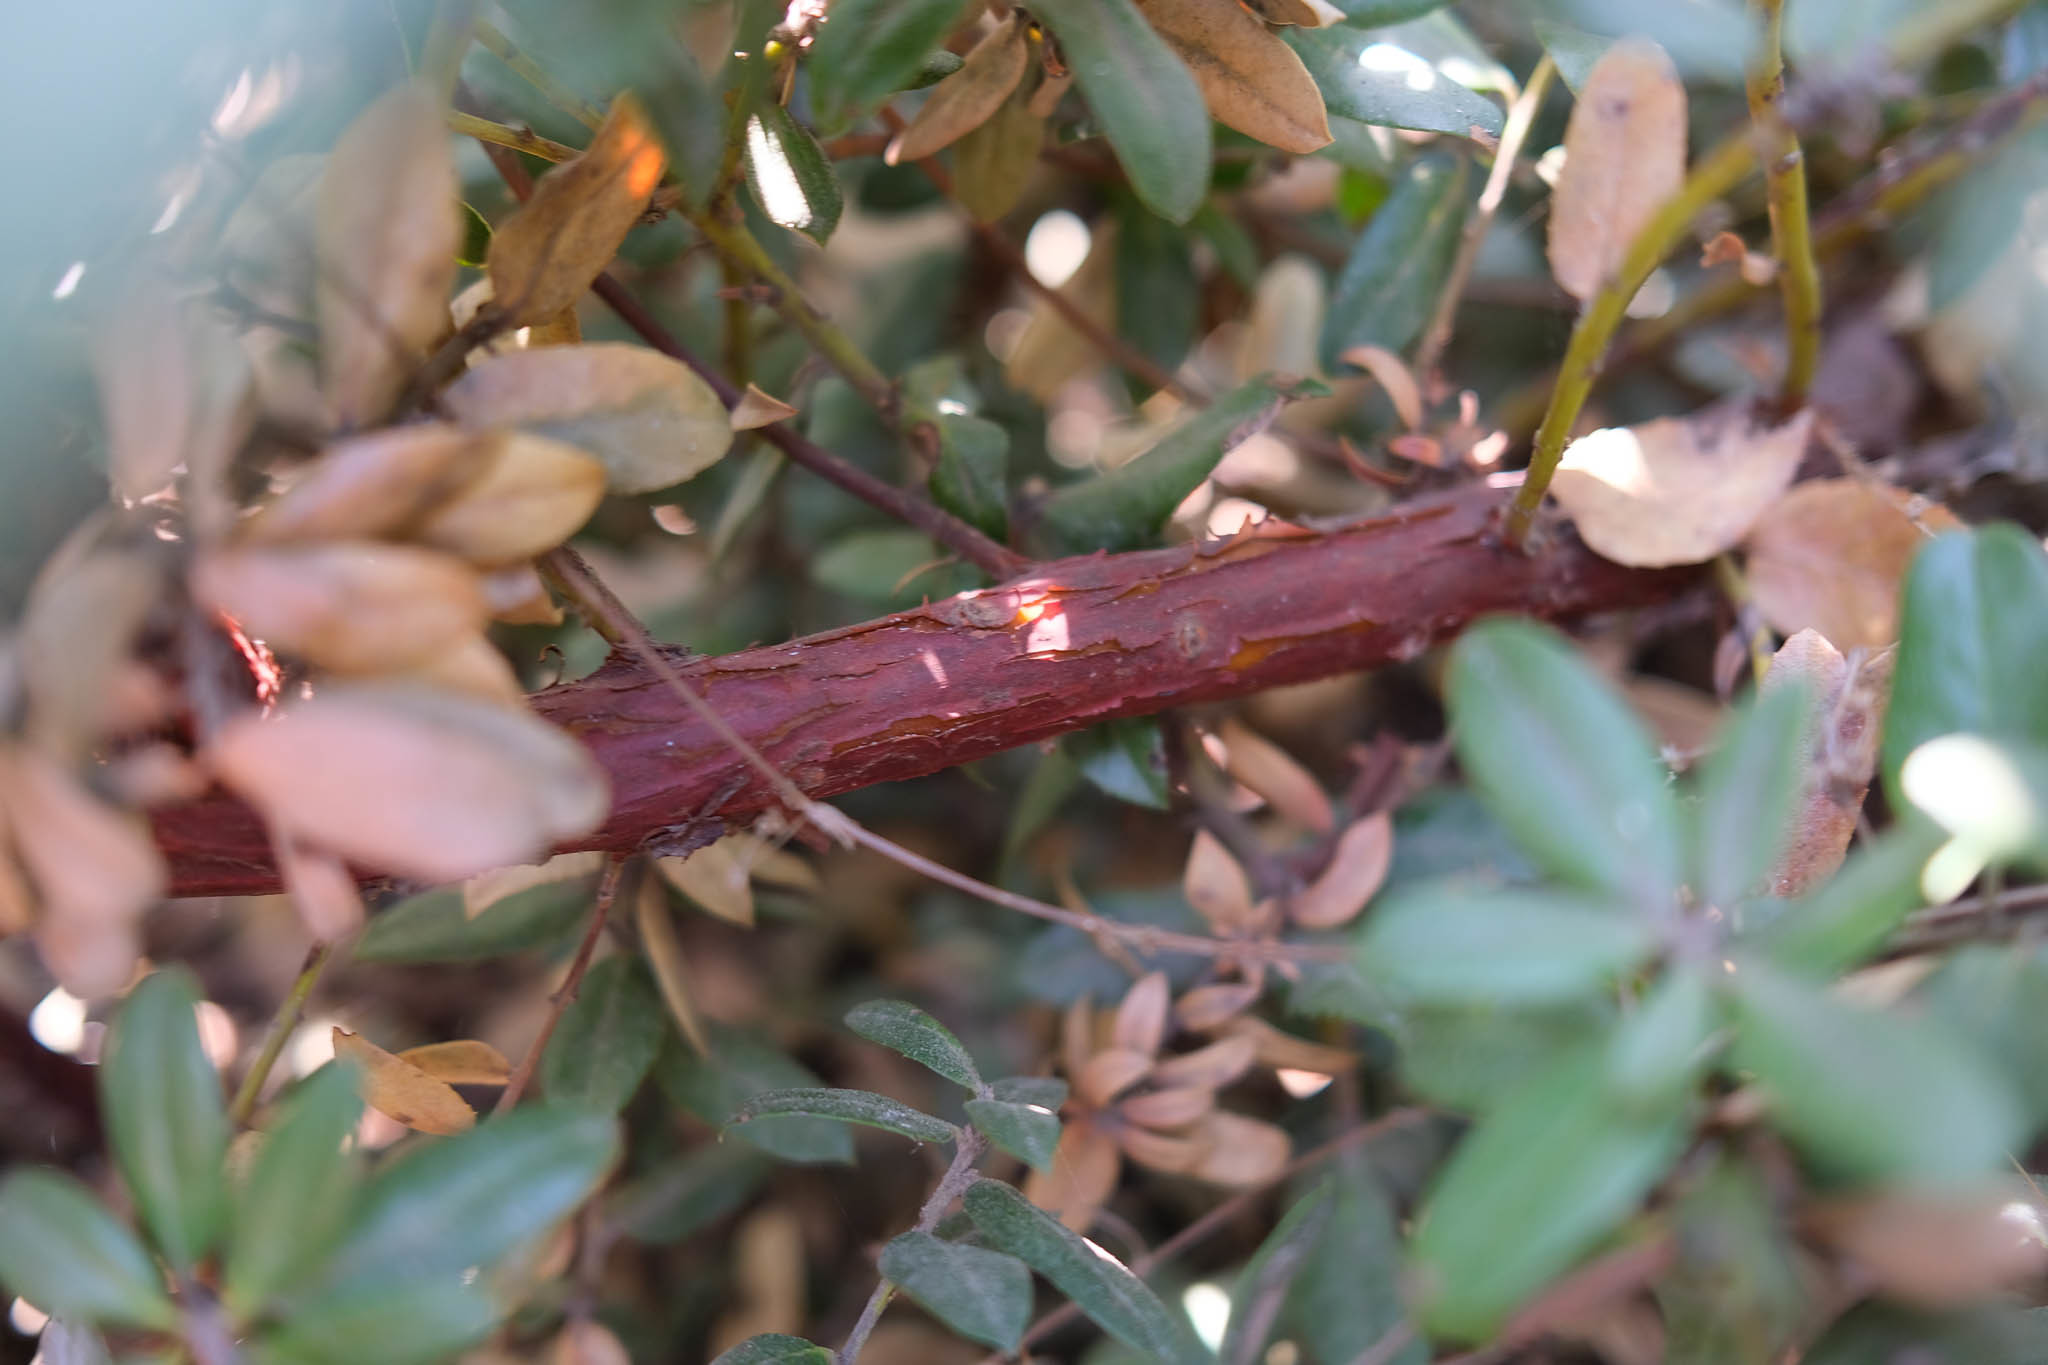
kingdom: Plantae
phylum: Tracheophyta
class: Magnoliopsida
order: Ericales
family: Ericaceae
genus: Arctostaphylos
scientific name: Arctostaphylos tomentosa
